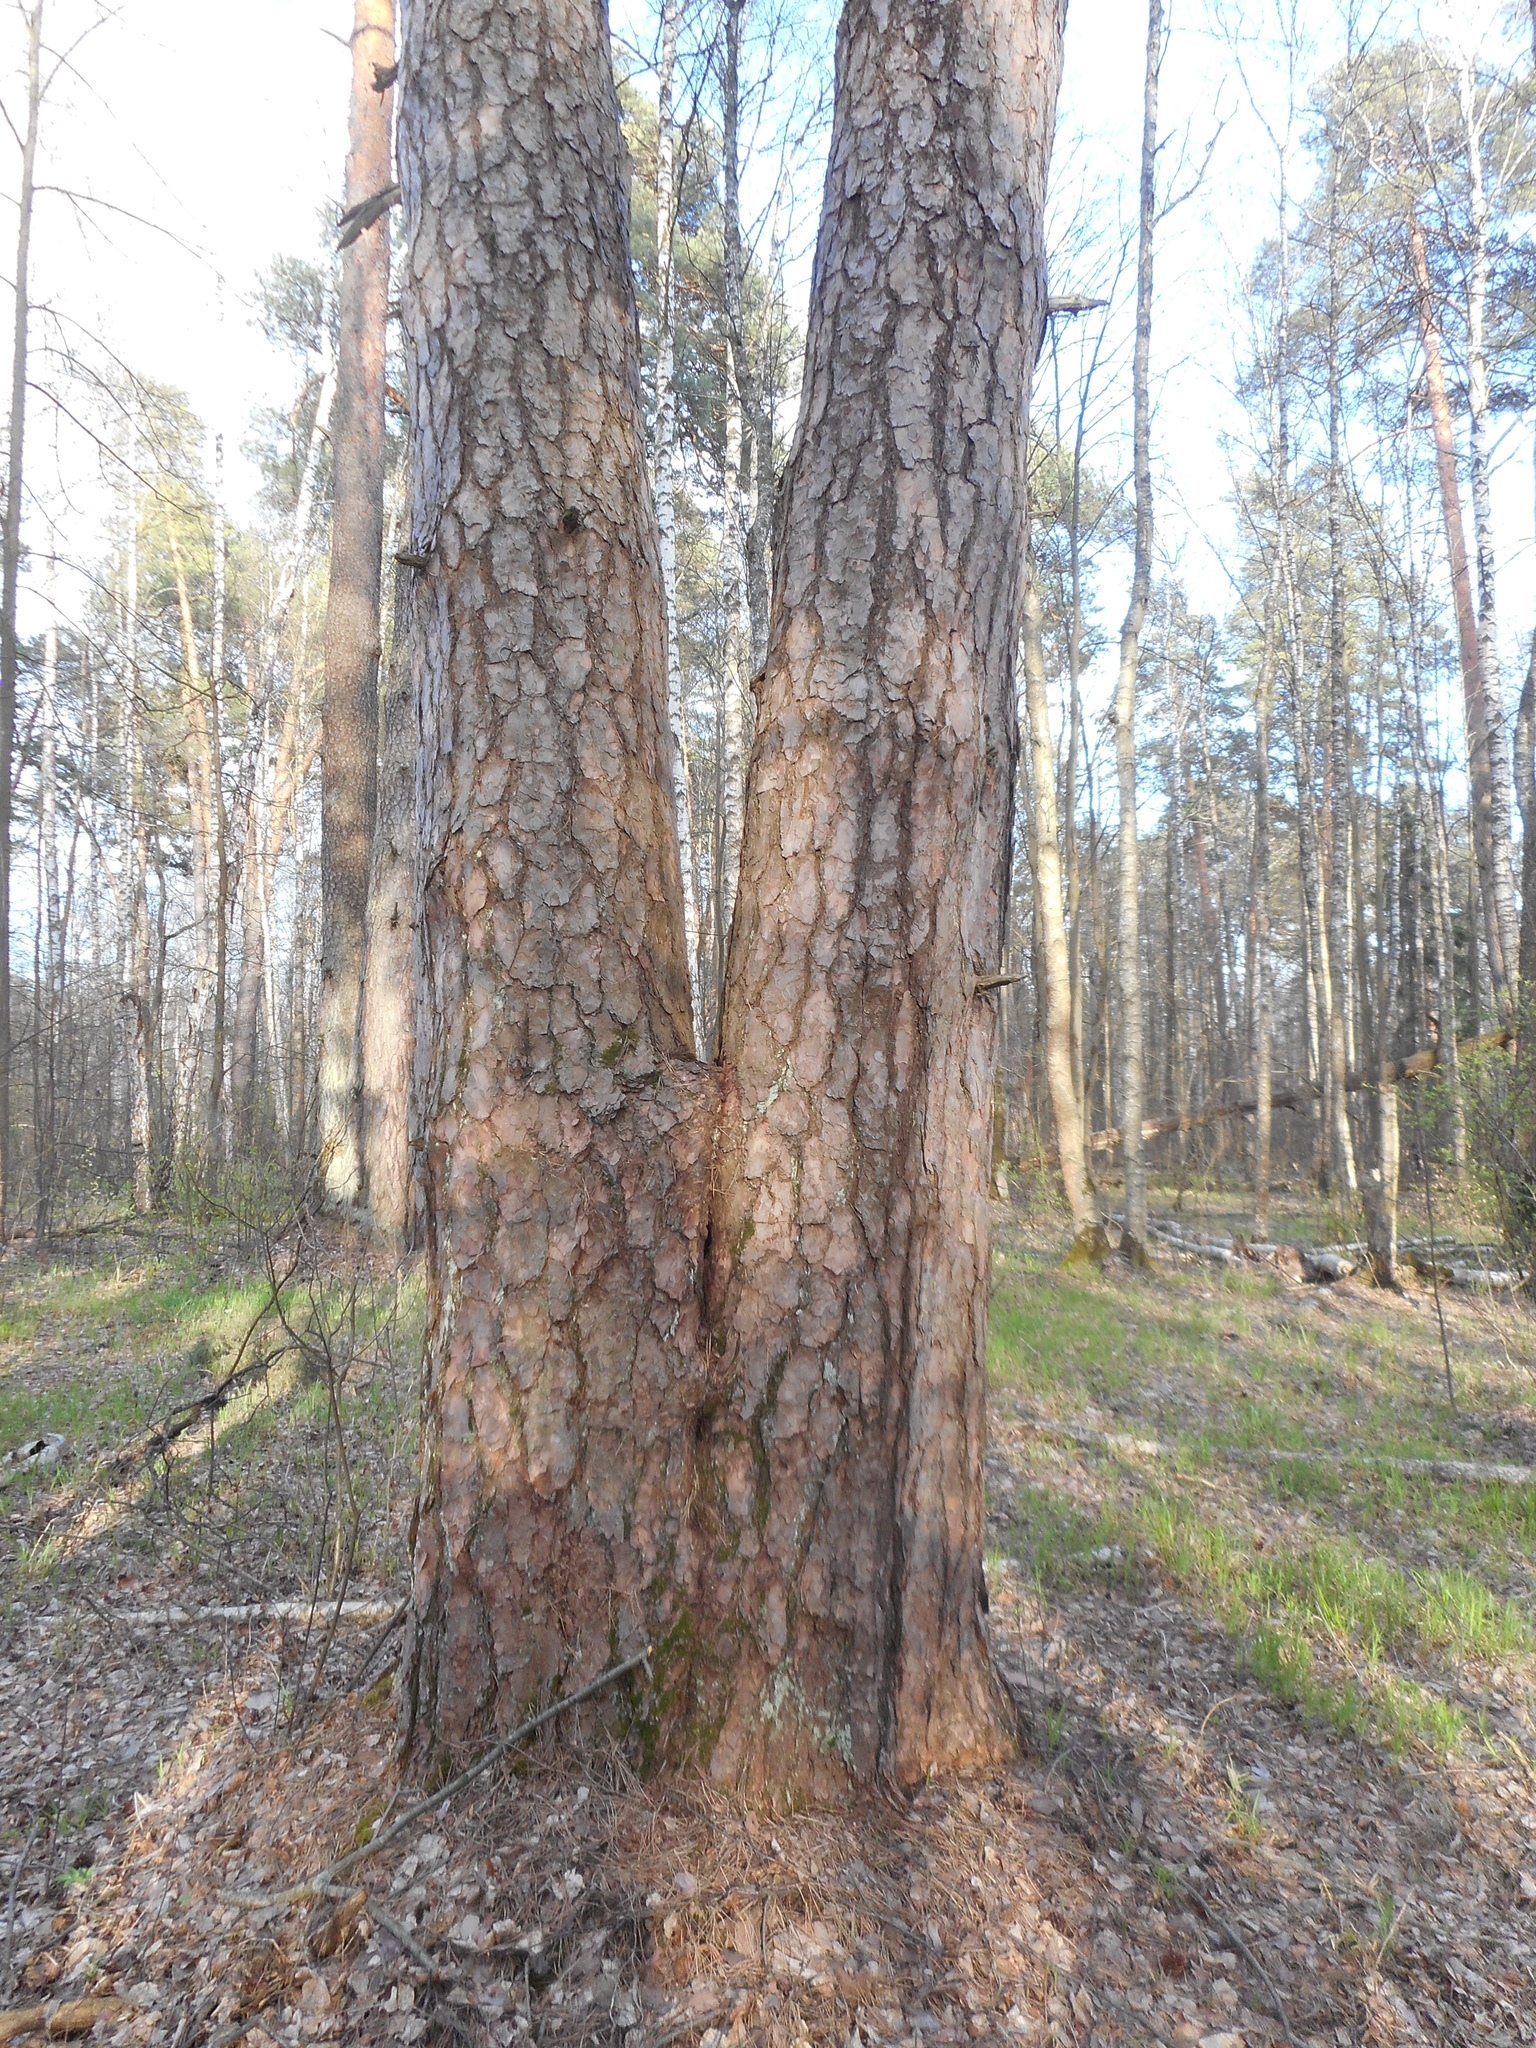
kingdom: Plantae
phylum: Tracheophyta
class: Pinopsida
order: Pinales
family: Pinaceae
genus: Pinus
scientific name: Pinus sylvestris
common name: Scots pine
